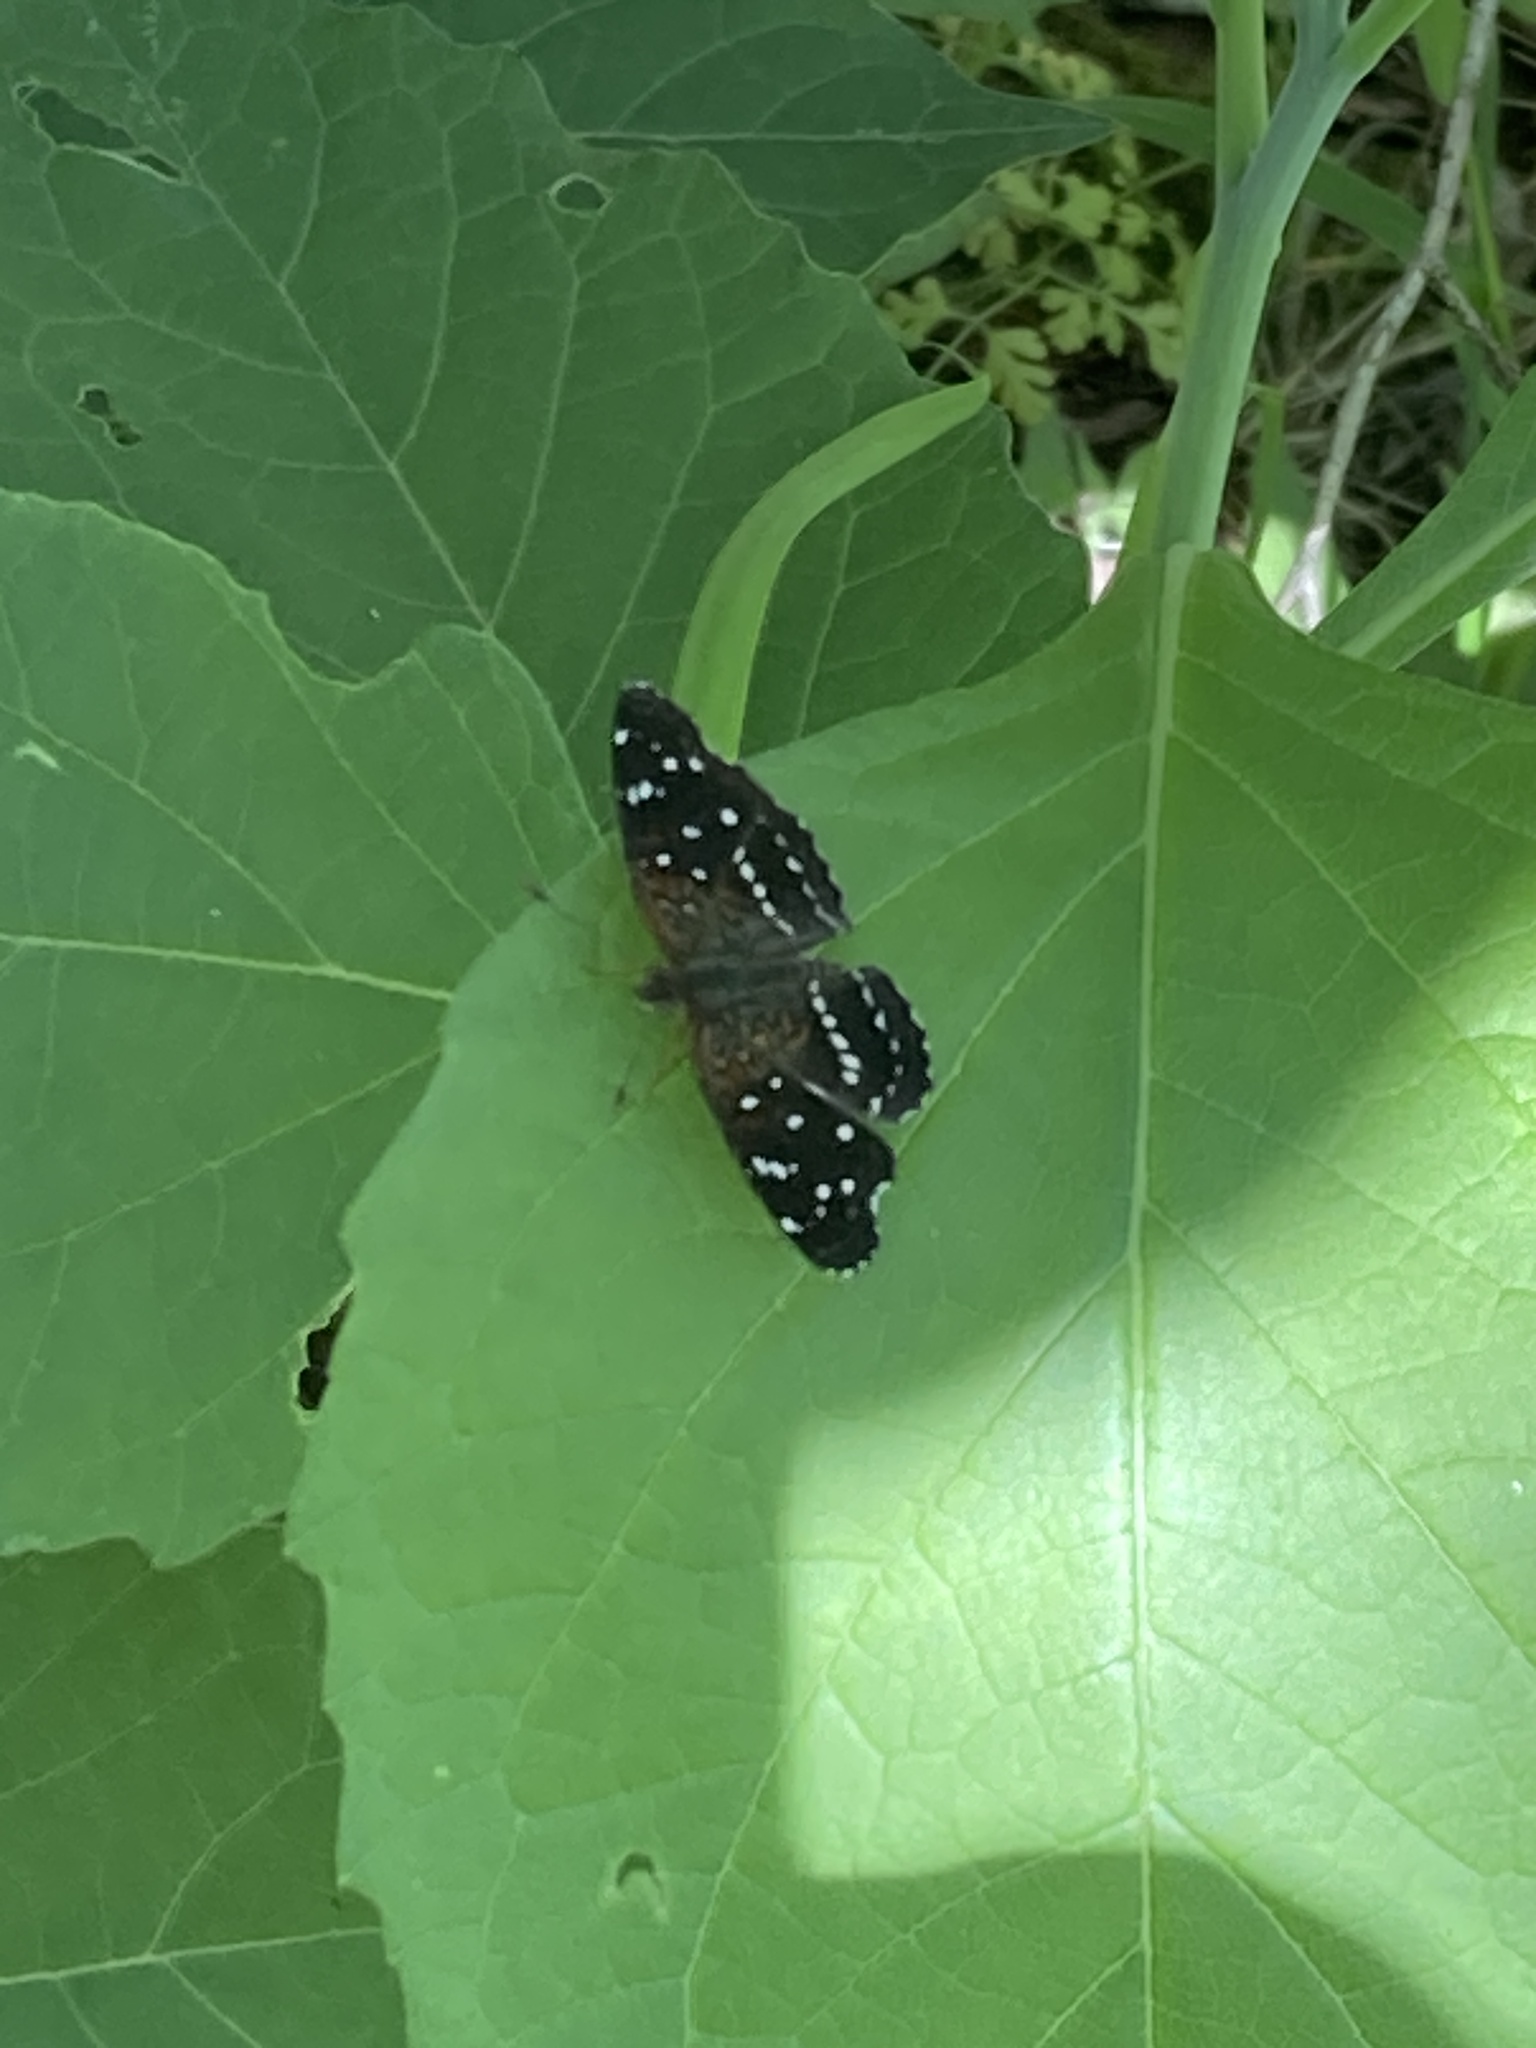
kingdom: Animalia
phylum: Arthropoda
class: Insecta
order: Lepidoptera
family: Nymphalidae
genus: Anthanassa
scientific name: Anthanassa texana
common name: Texan crescent
